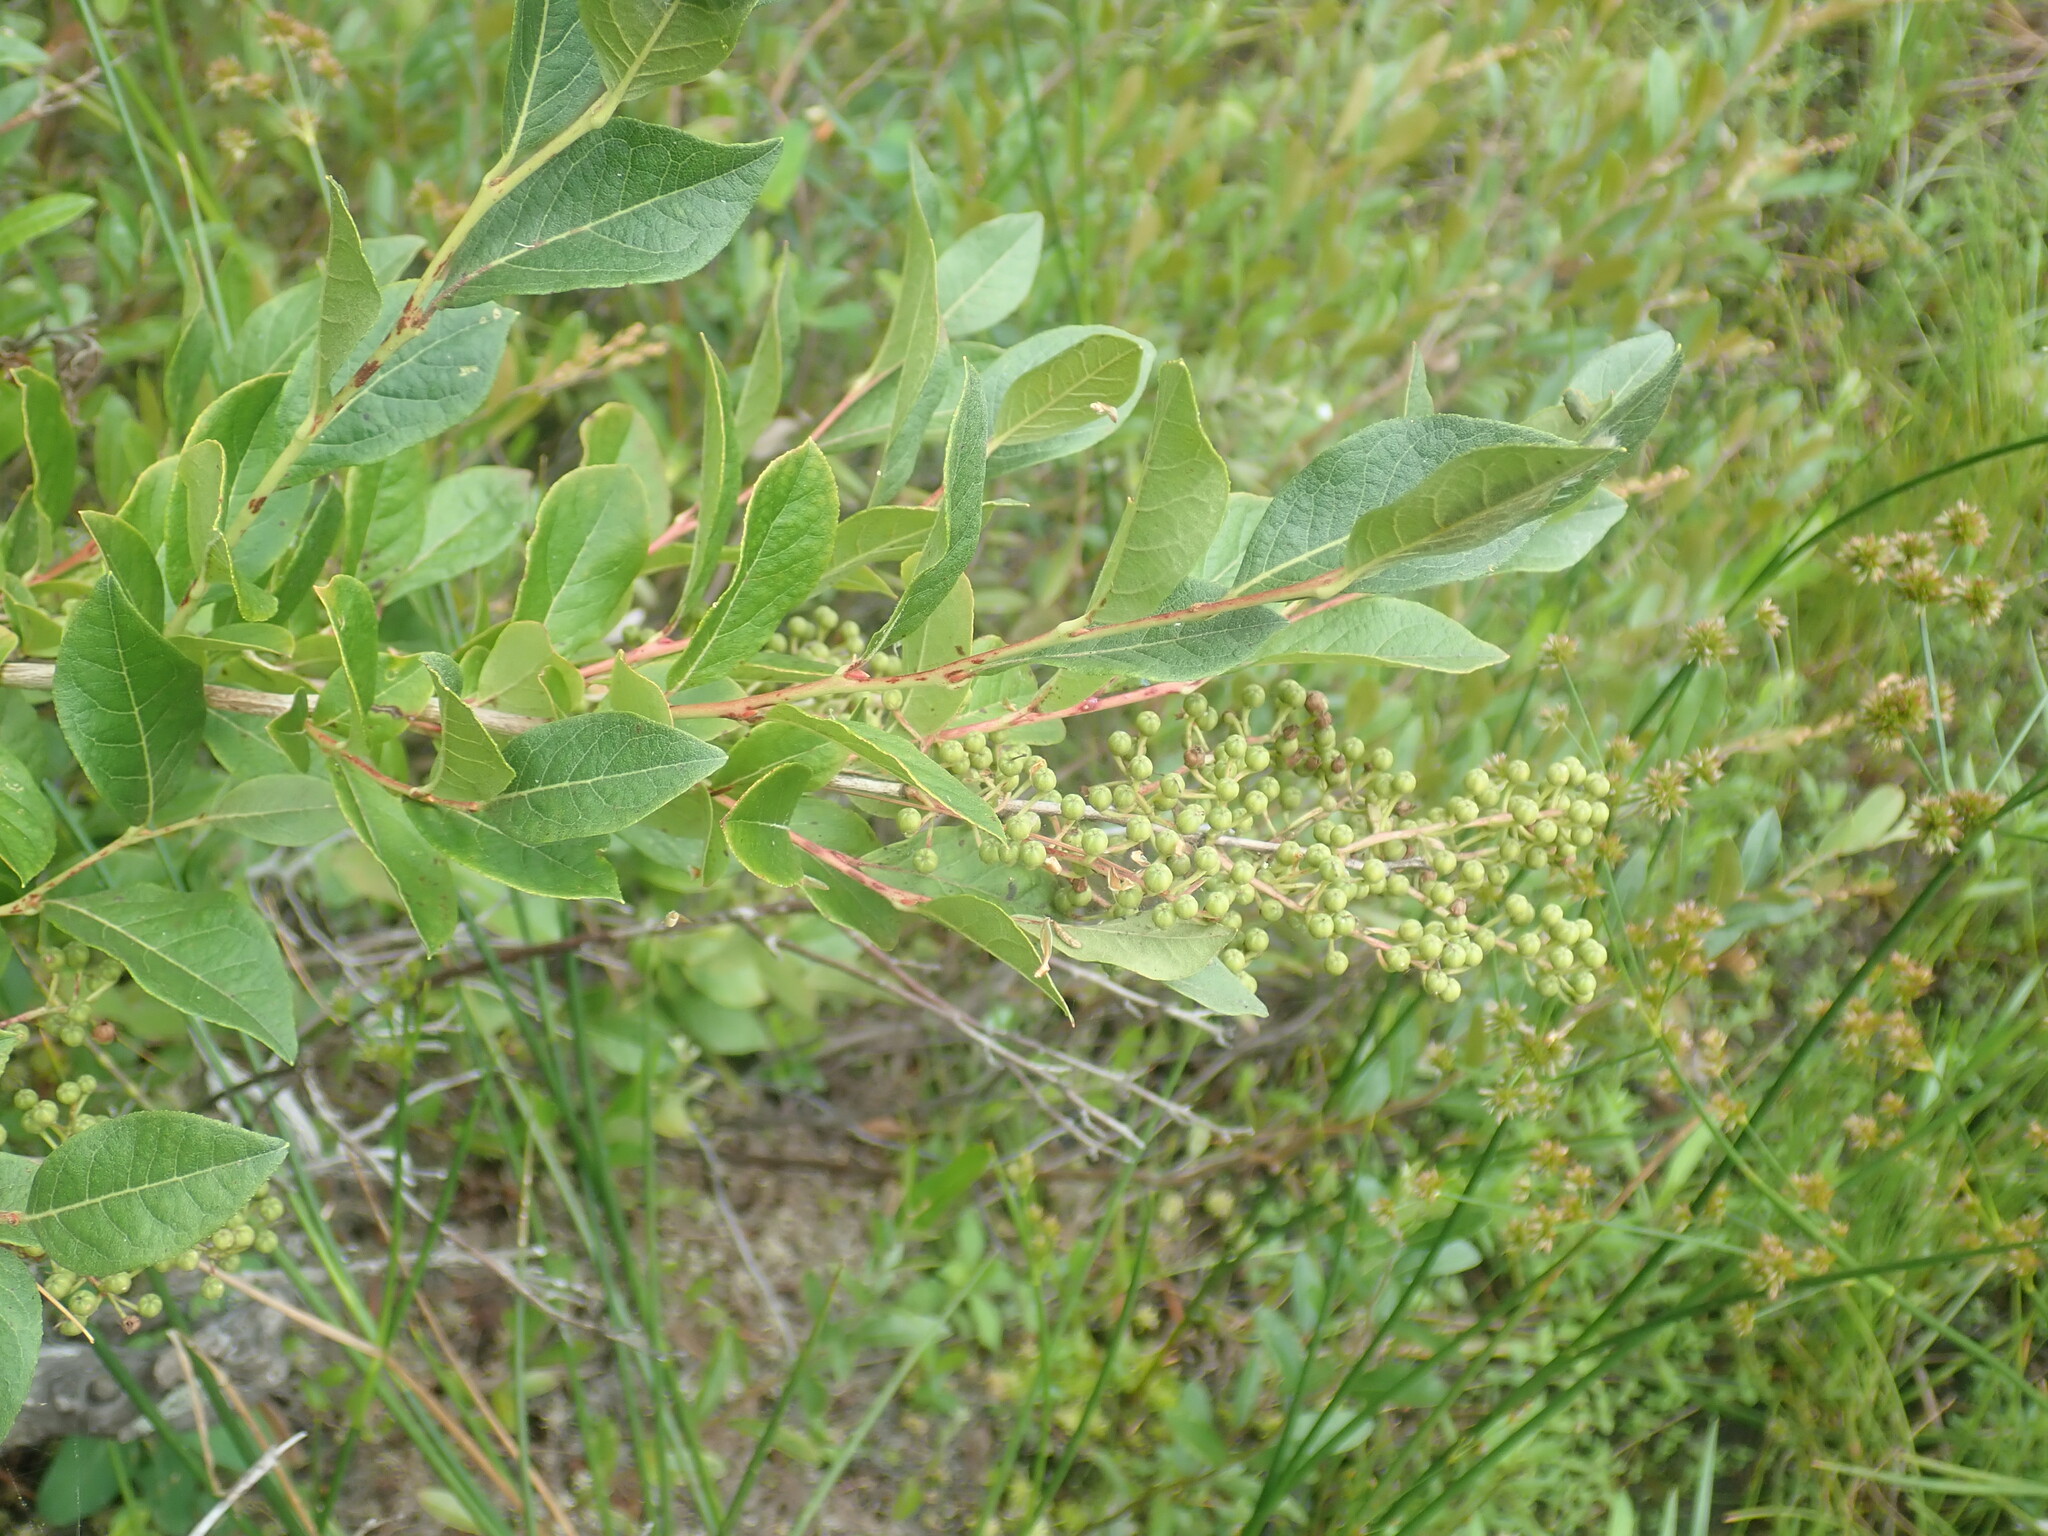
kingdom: Plantae
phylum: Tracheophyta
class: Magnoliopsida
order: Ericales
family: Ericaceae
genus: Lyonia
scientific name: Lyonia ligustrina
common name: Maleberry
